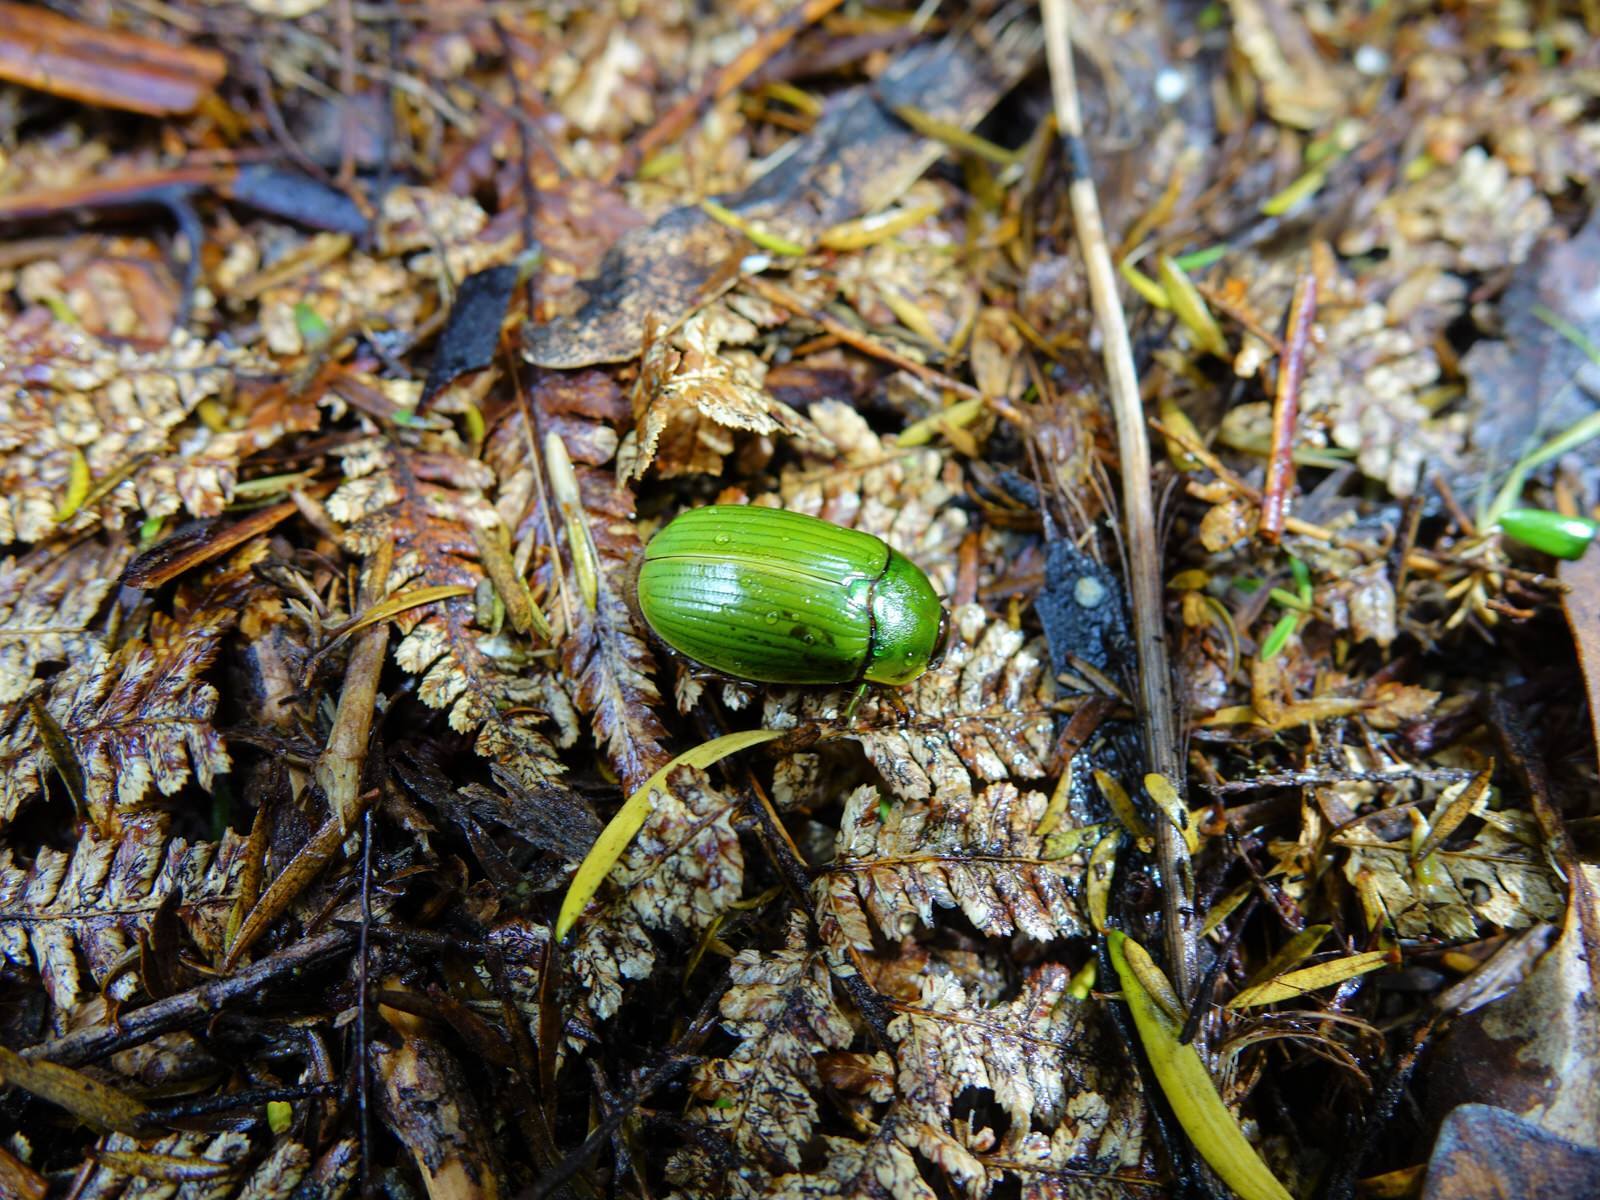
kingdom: Animalia
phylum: Arthropoda
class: Insecta
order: Coleoptera
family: Scarabaeidae
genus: Stethaspis
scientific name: Stethaspis longicornis
